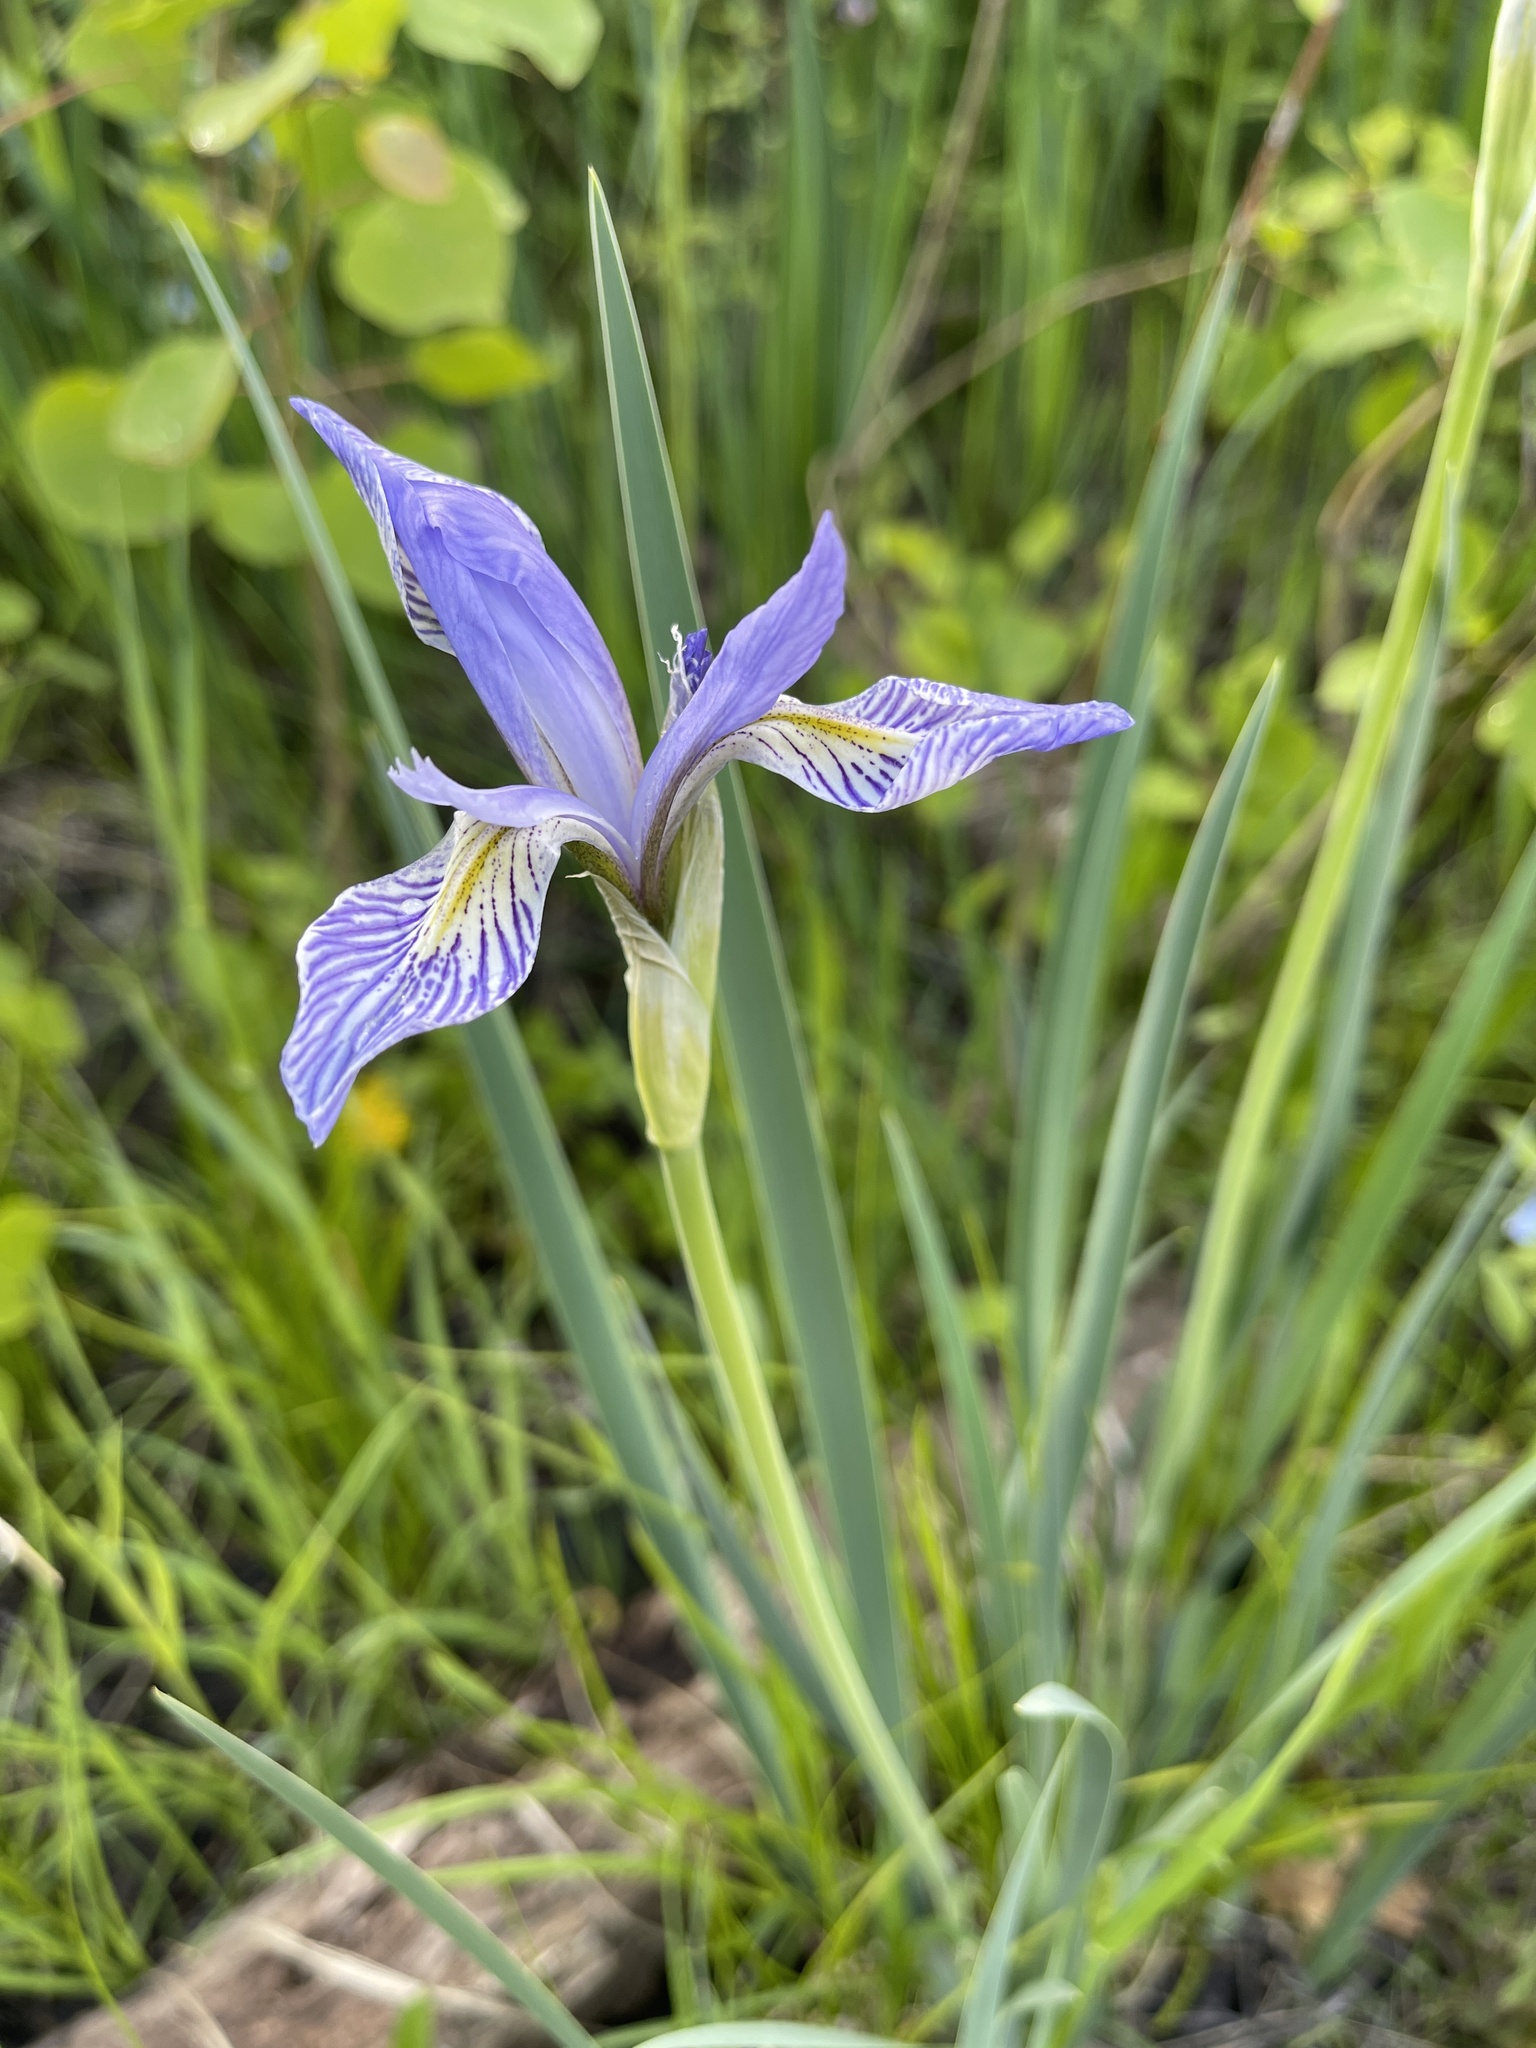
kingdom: Plantae
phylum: Tracheophyta
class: Liliopsida
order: Asparagales
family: Iridaceae
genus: Iris
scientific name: Iris missouriensis
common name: Rocky mountain iris
